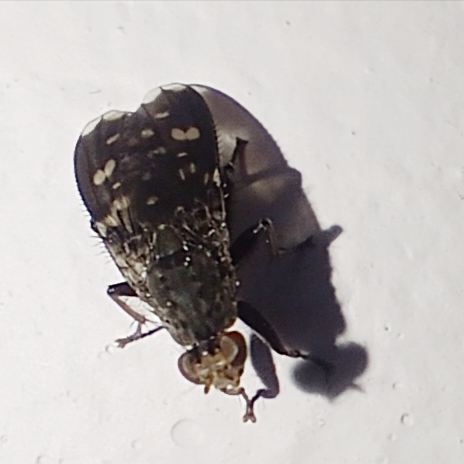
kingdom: Animalia
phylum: Arthropoda
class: Insecta
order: Diptera
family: Heleomyzidae
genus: Suillia
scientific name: Suillia picta
